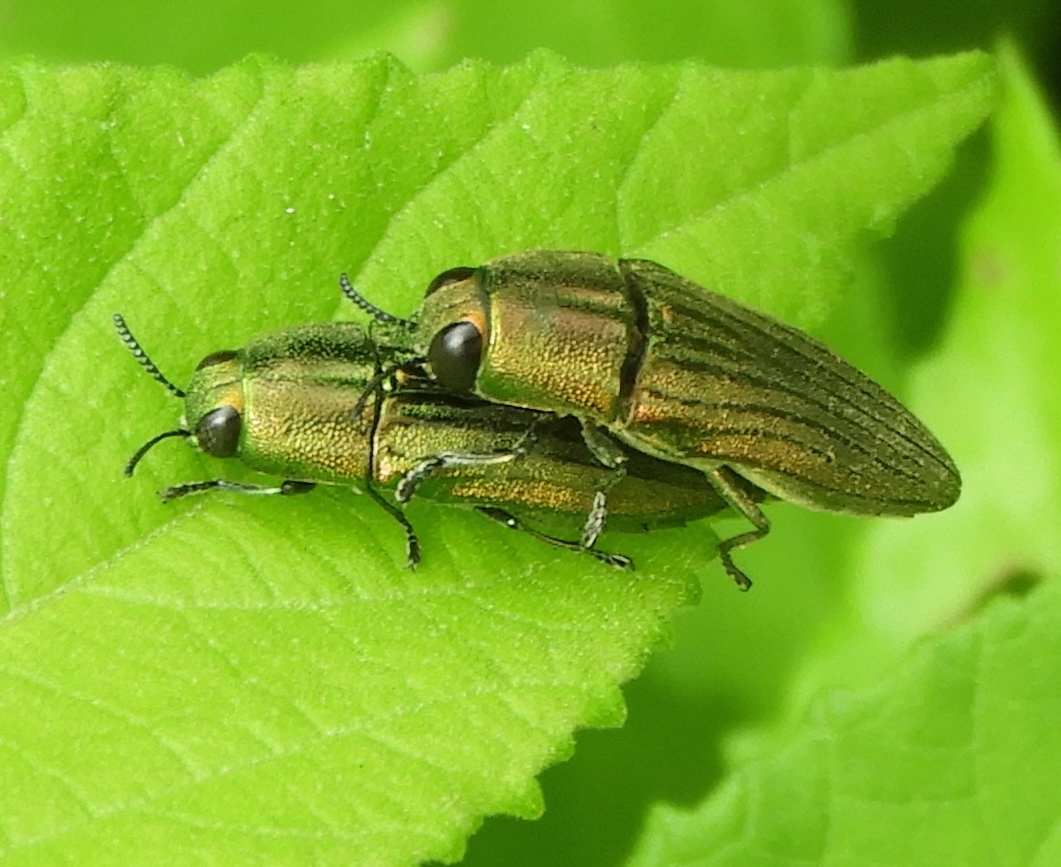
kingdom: Animalia
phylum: Arthropoda
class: Insecta
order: Coleoptera
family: Buprestidae
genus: Agaeocera
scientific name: Agaeocera scintillans
